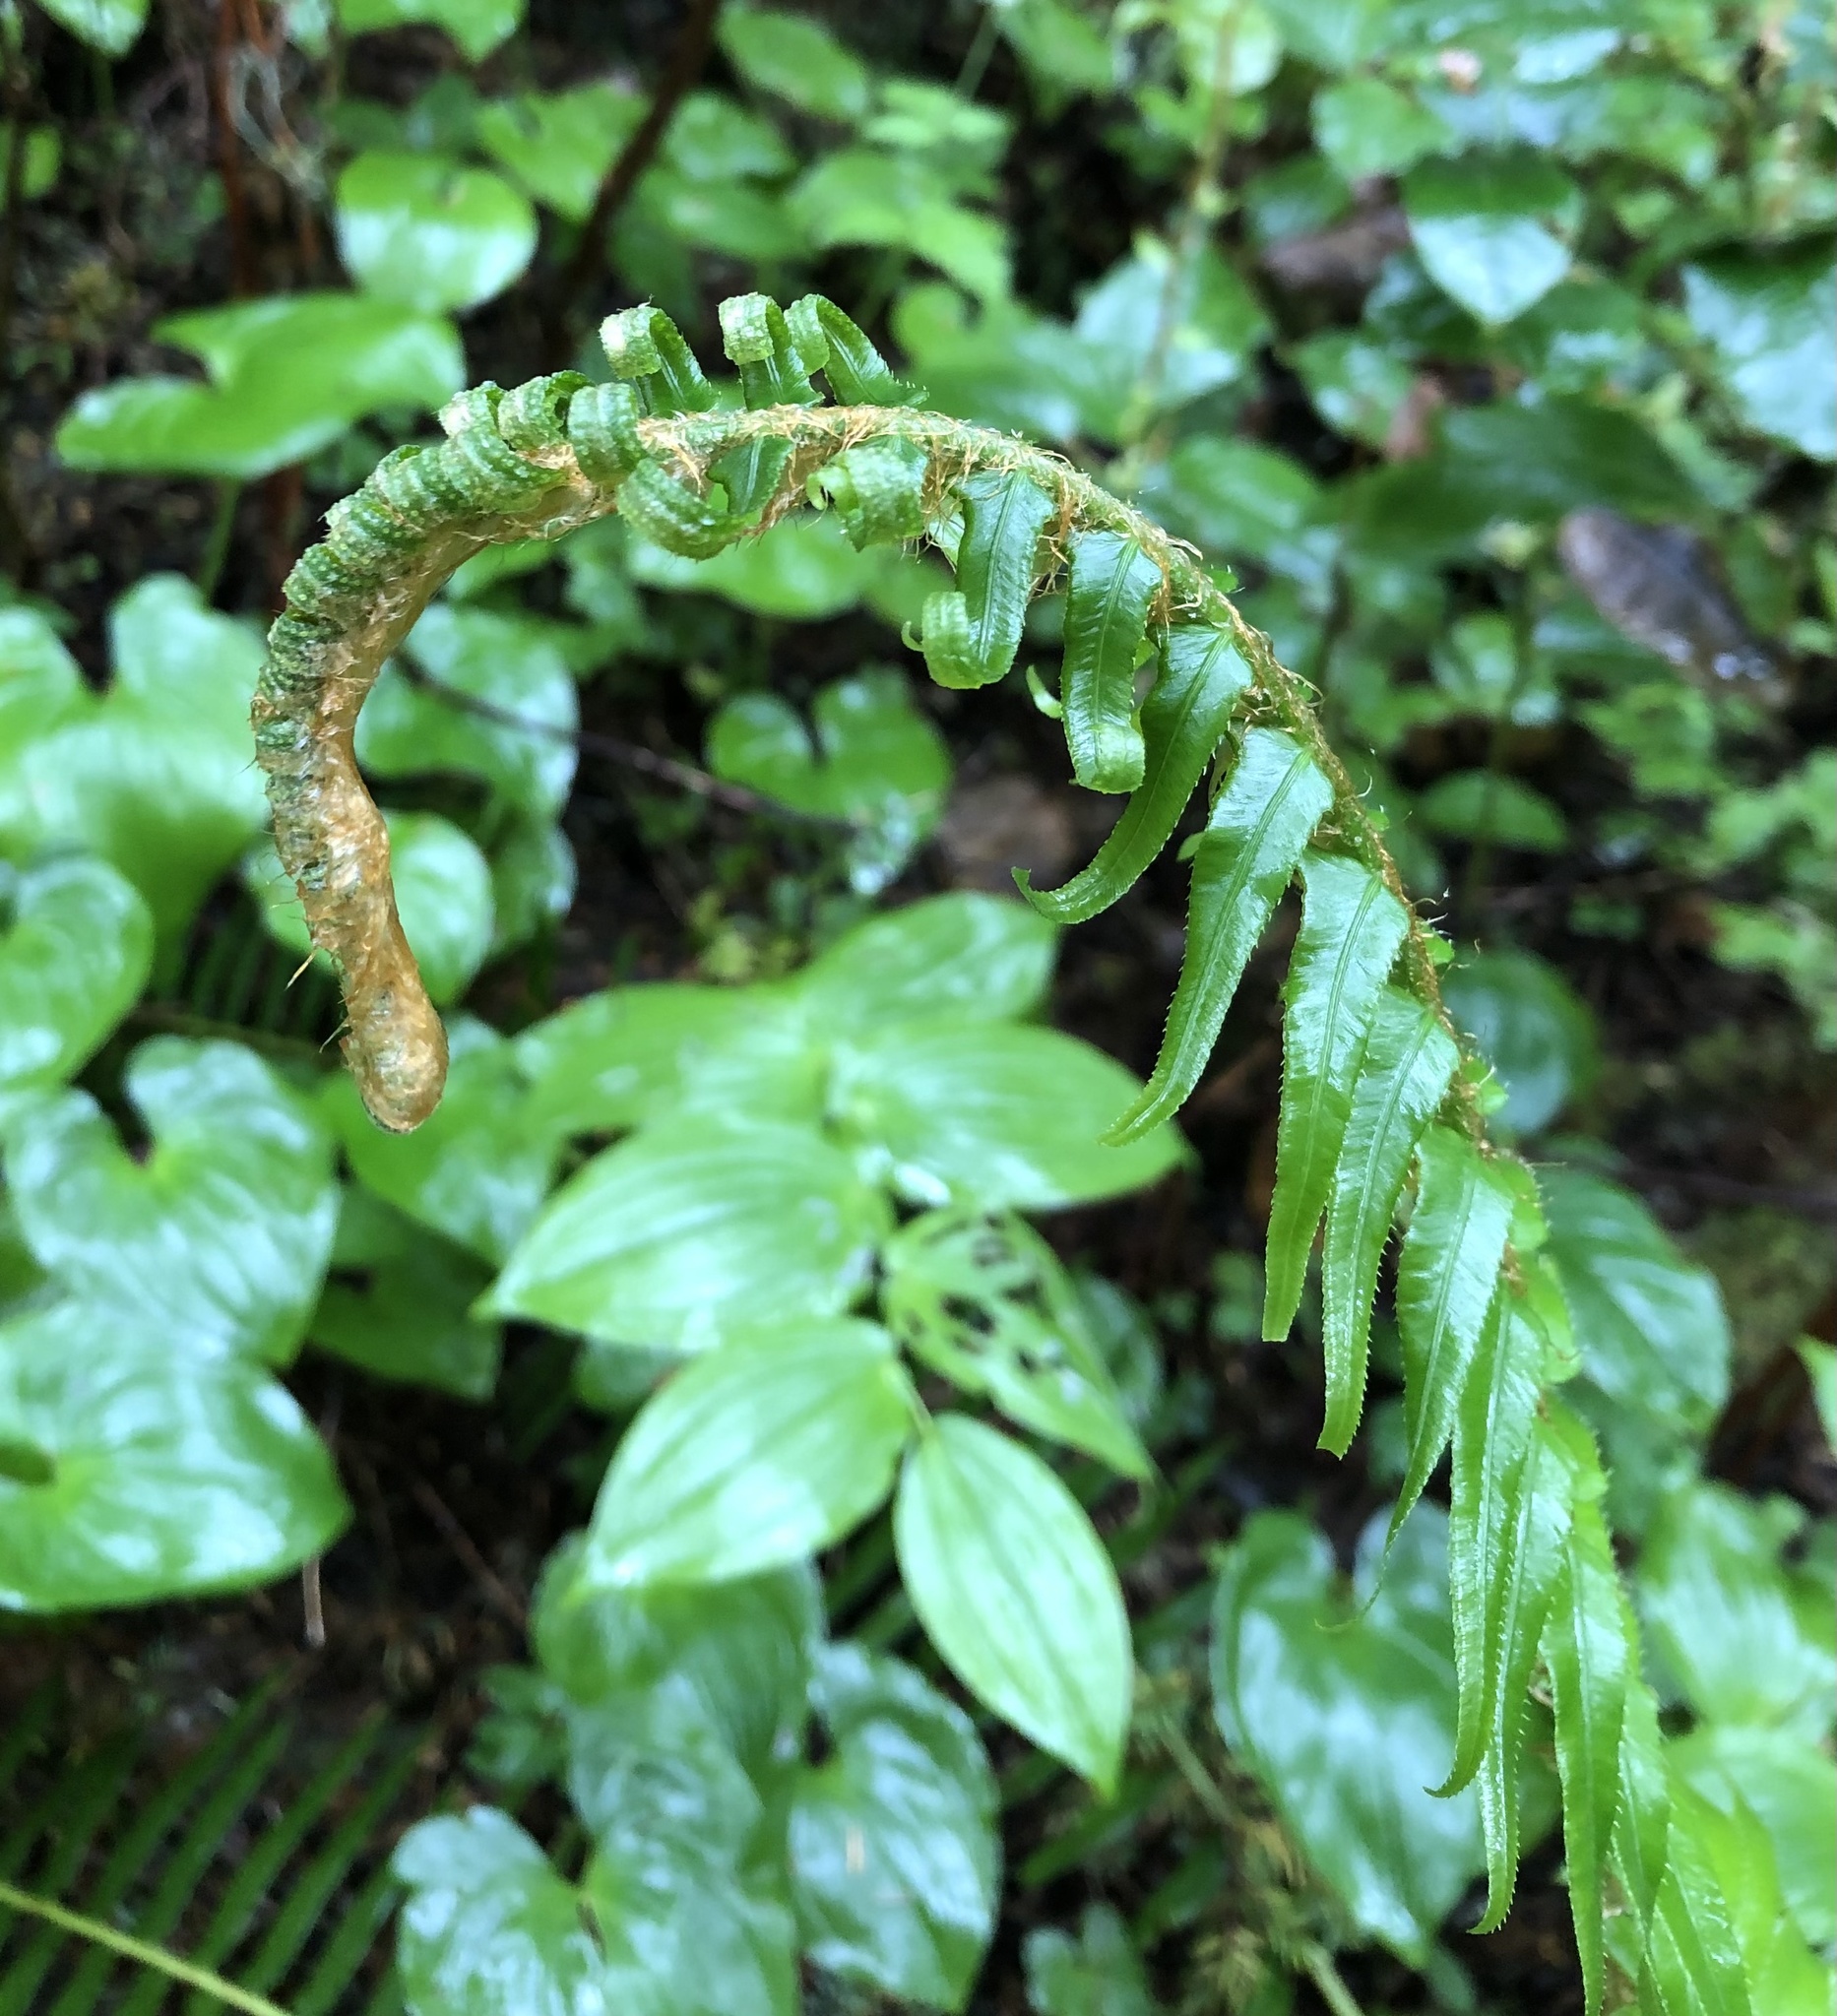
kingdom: Plantae
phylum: Tracheophyta
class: Polypodiopsida
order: Polypodiales
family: Dryopteridaceae
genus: Polystichum
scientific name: Polystichum munitum
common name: Western sword-fern
